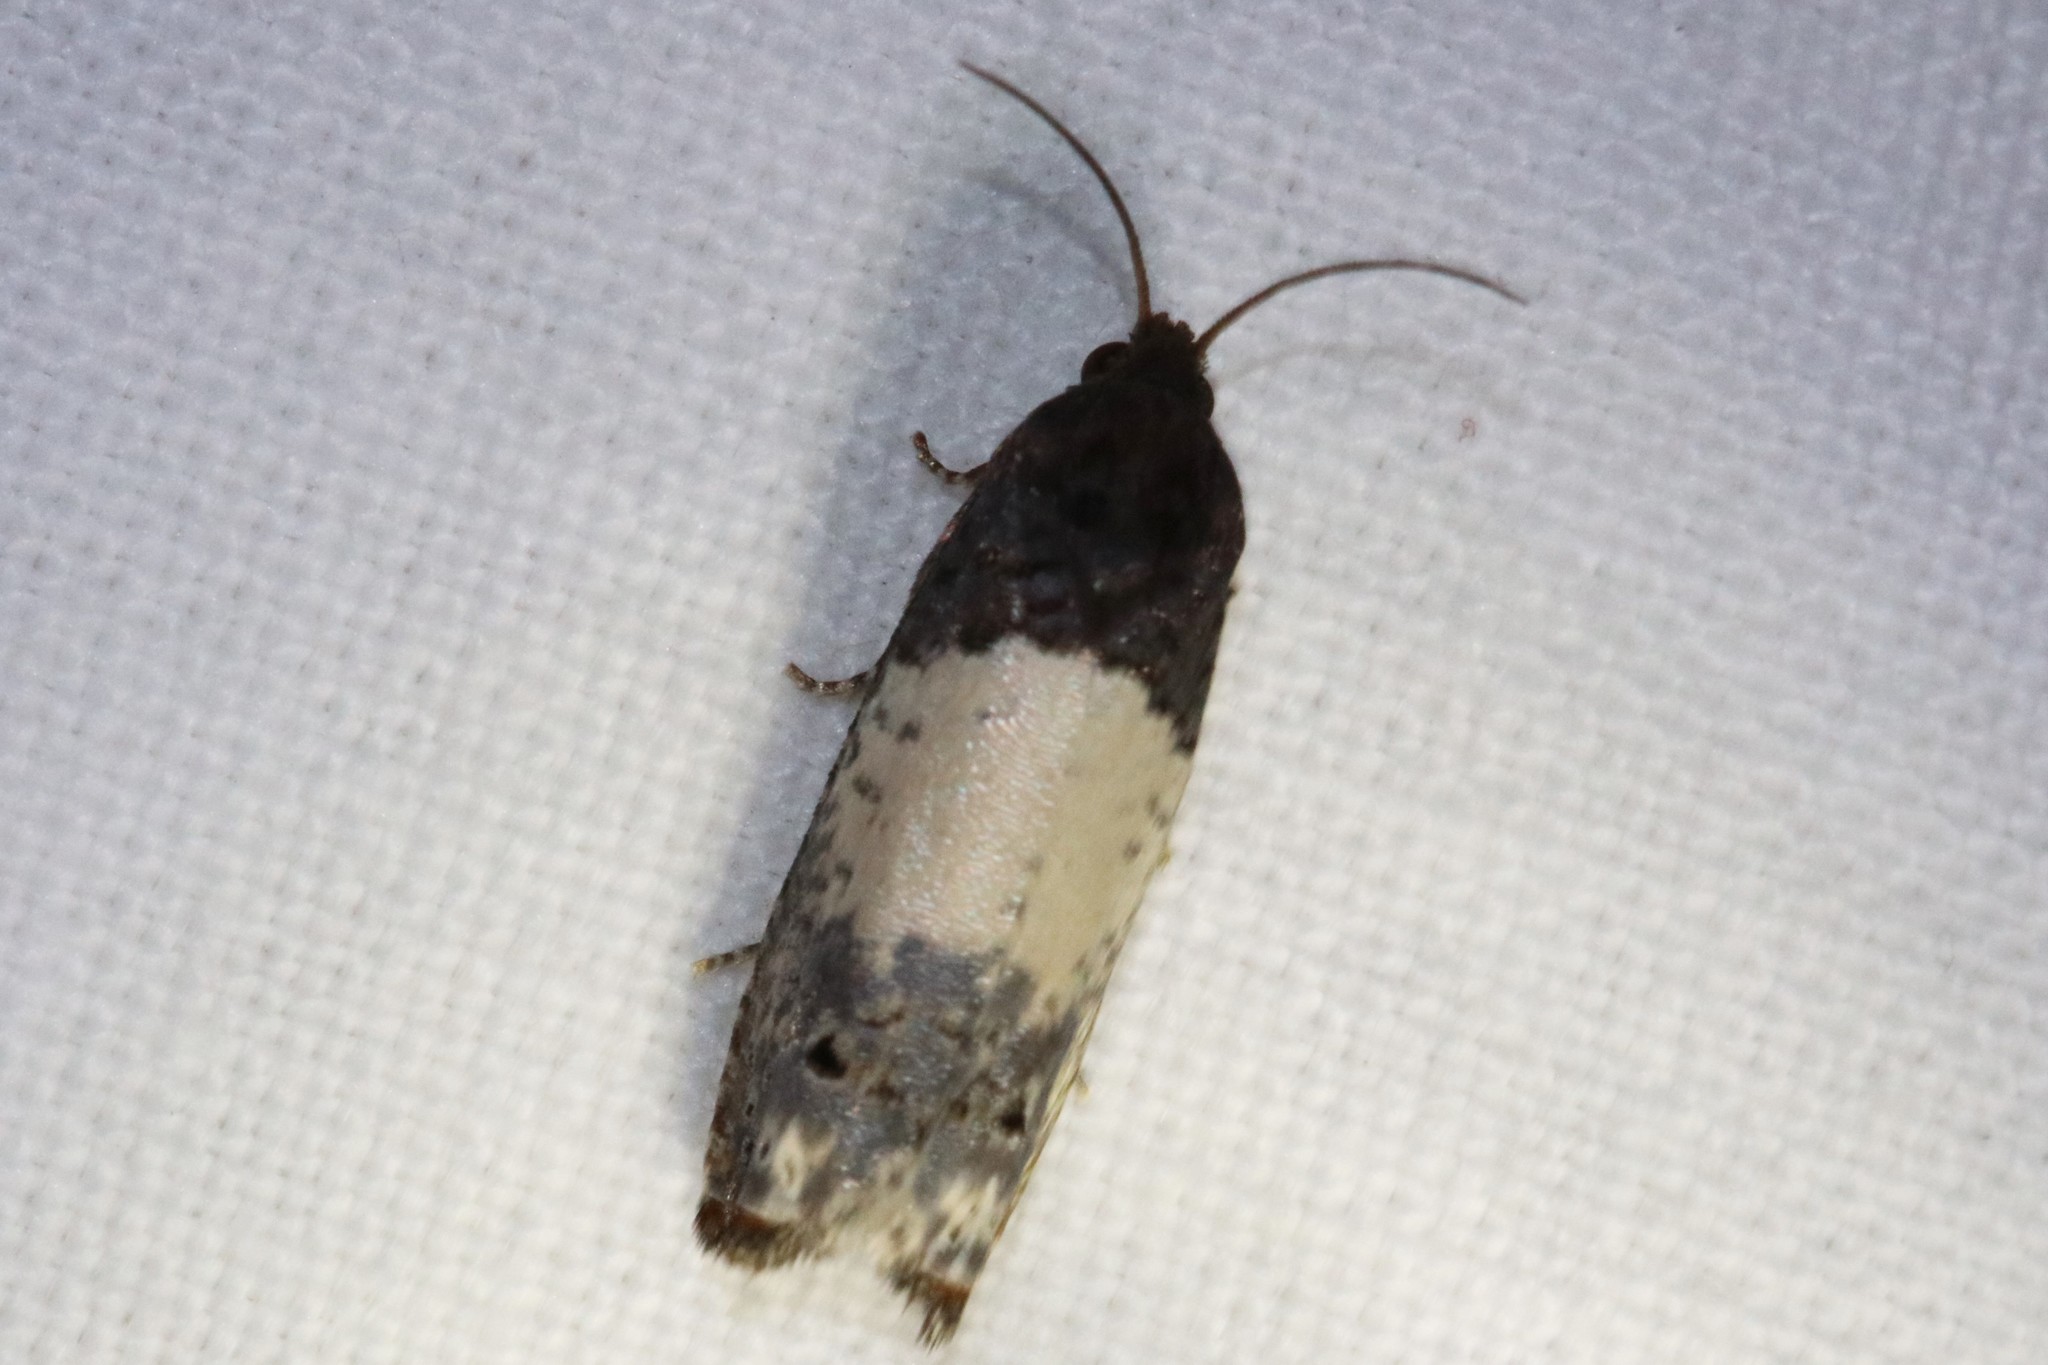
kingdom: Animalia
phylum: Arthropoda
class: Insecta
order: Lepidoptera
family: Tortricidae
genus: Epiblema
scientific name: Epiblema scudderiana
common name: Goldenrod gall moth
